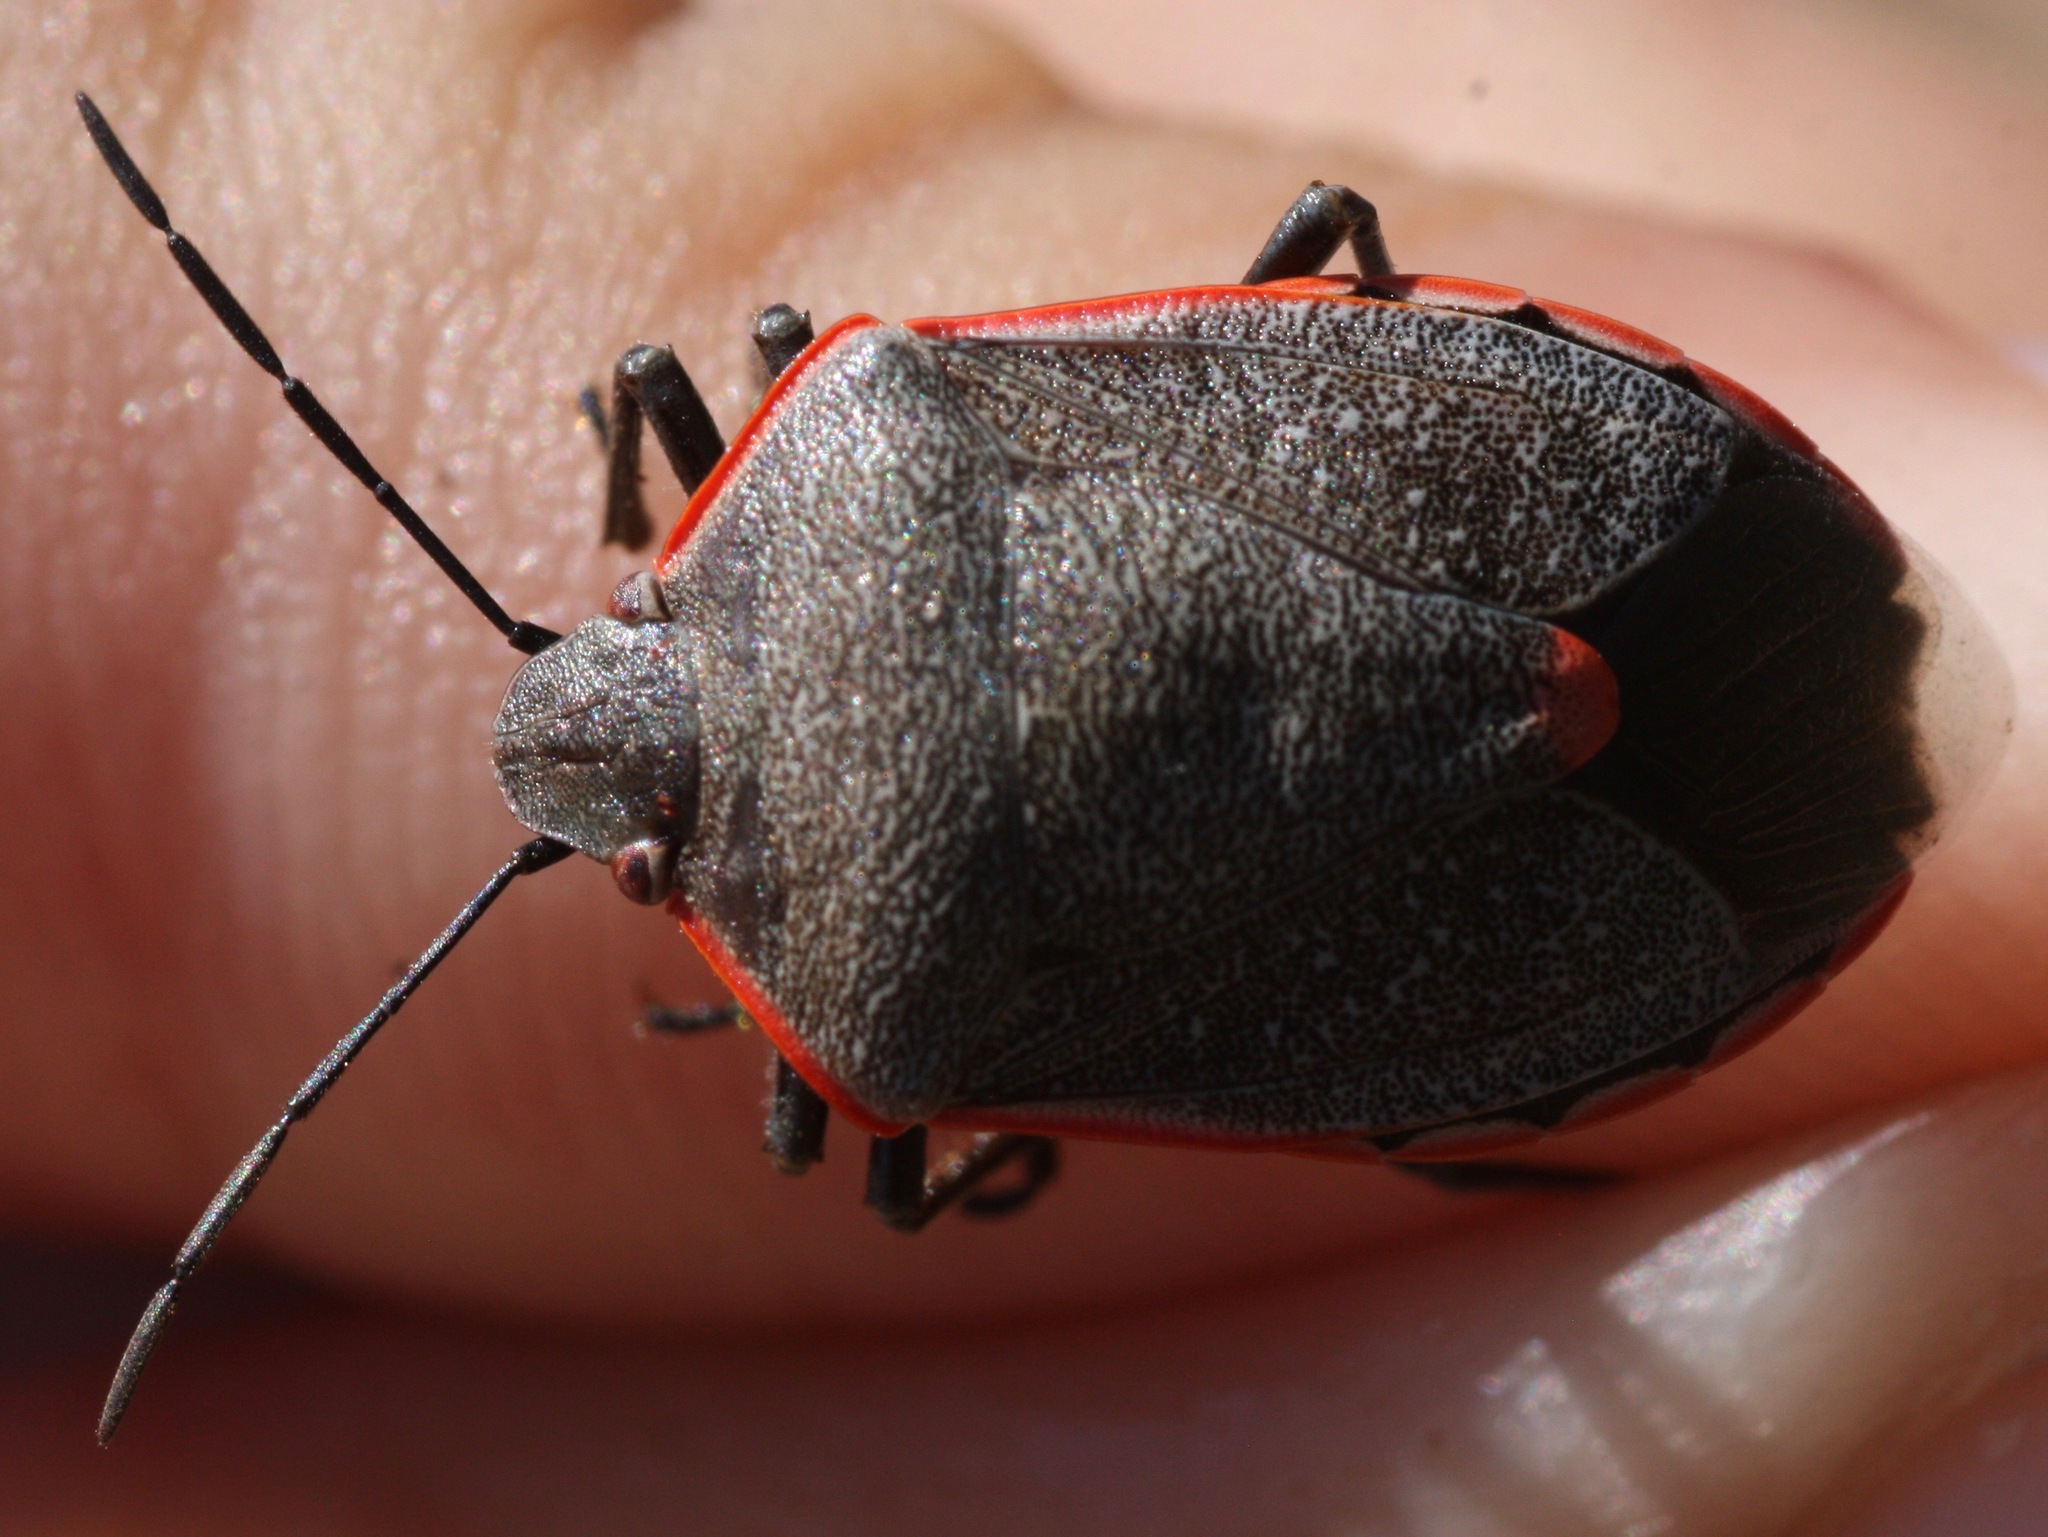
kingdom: Animalia
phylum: Arthropoda
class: Insecta
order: Hemiptera
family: Pentatomidae
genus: Chlorochroa
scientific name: Chlorochroa ligata
